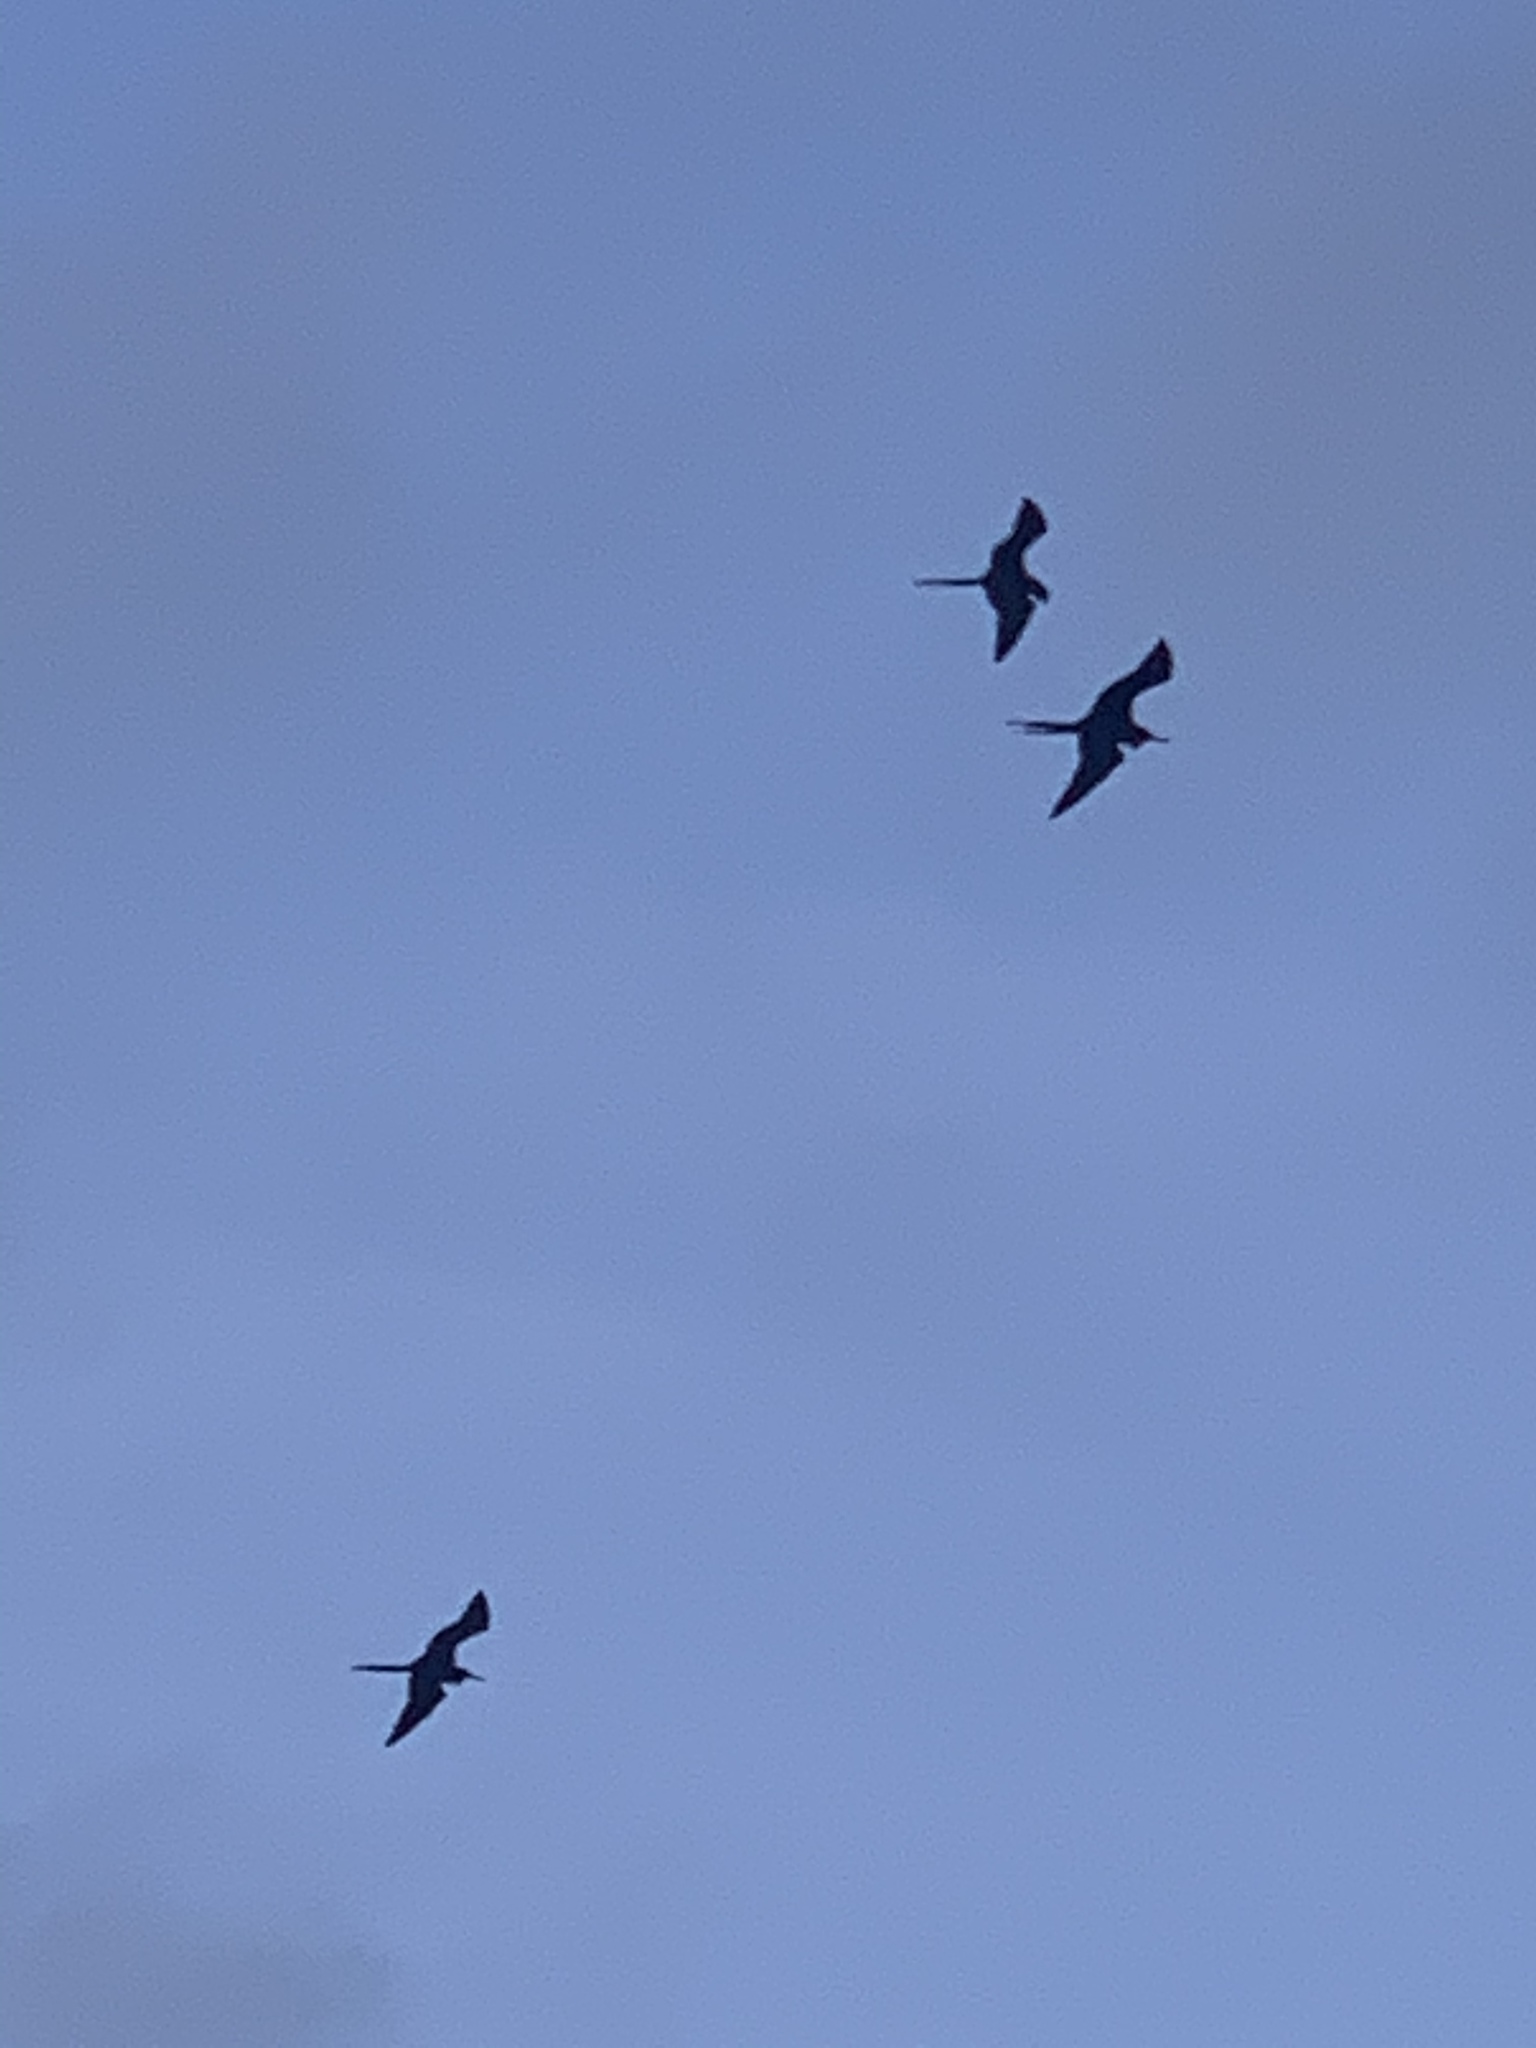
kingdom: Animalia
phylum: Chordata
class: Aves
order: Suliformes
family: Fregatidae
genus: Fregata
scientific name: Fregata magnificens
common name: Magnificent frigatebird
